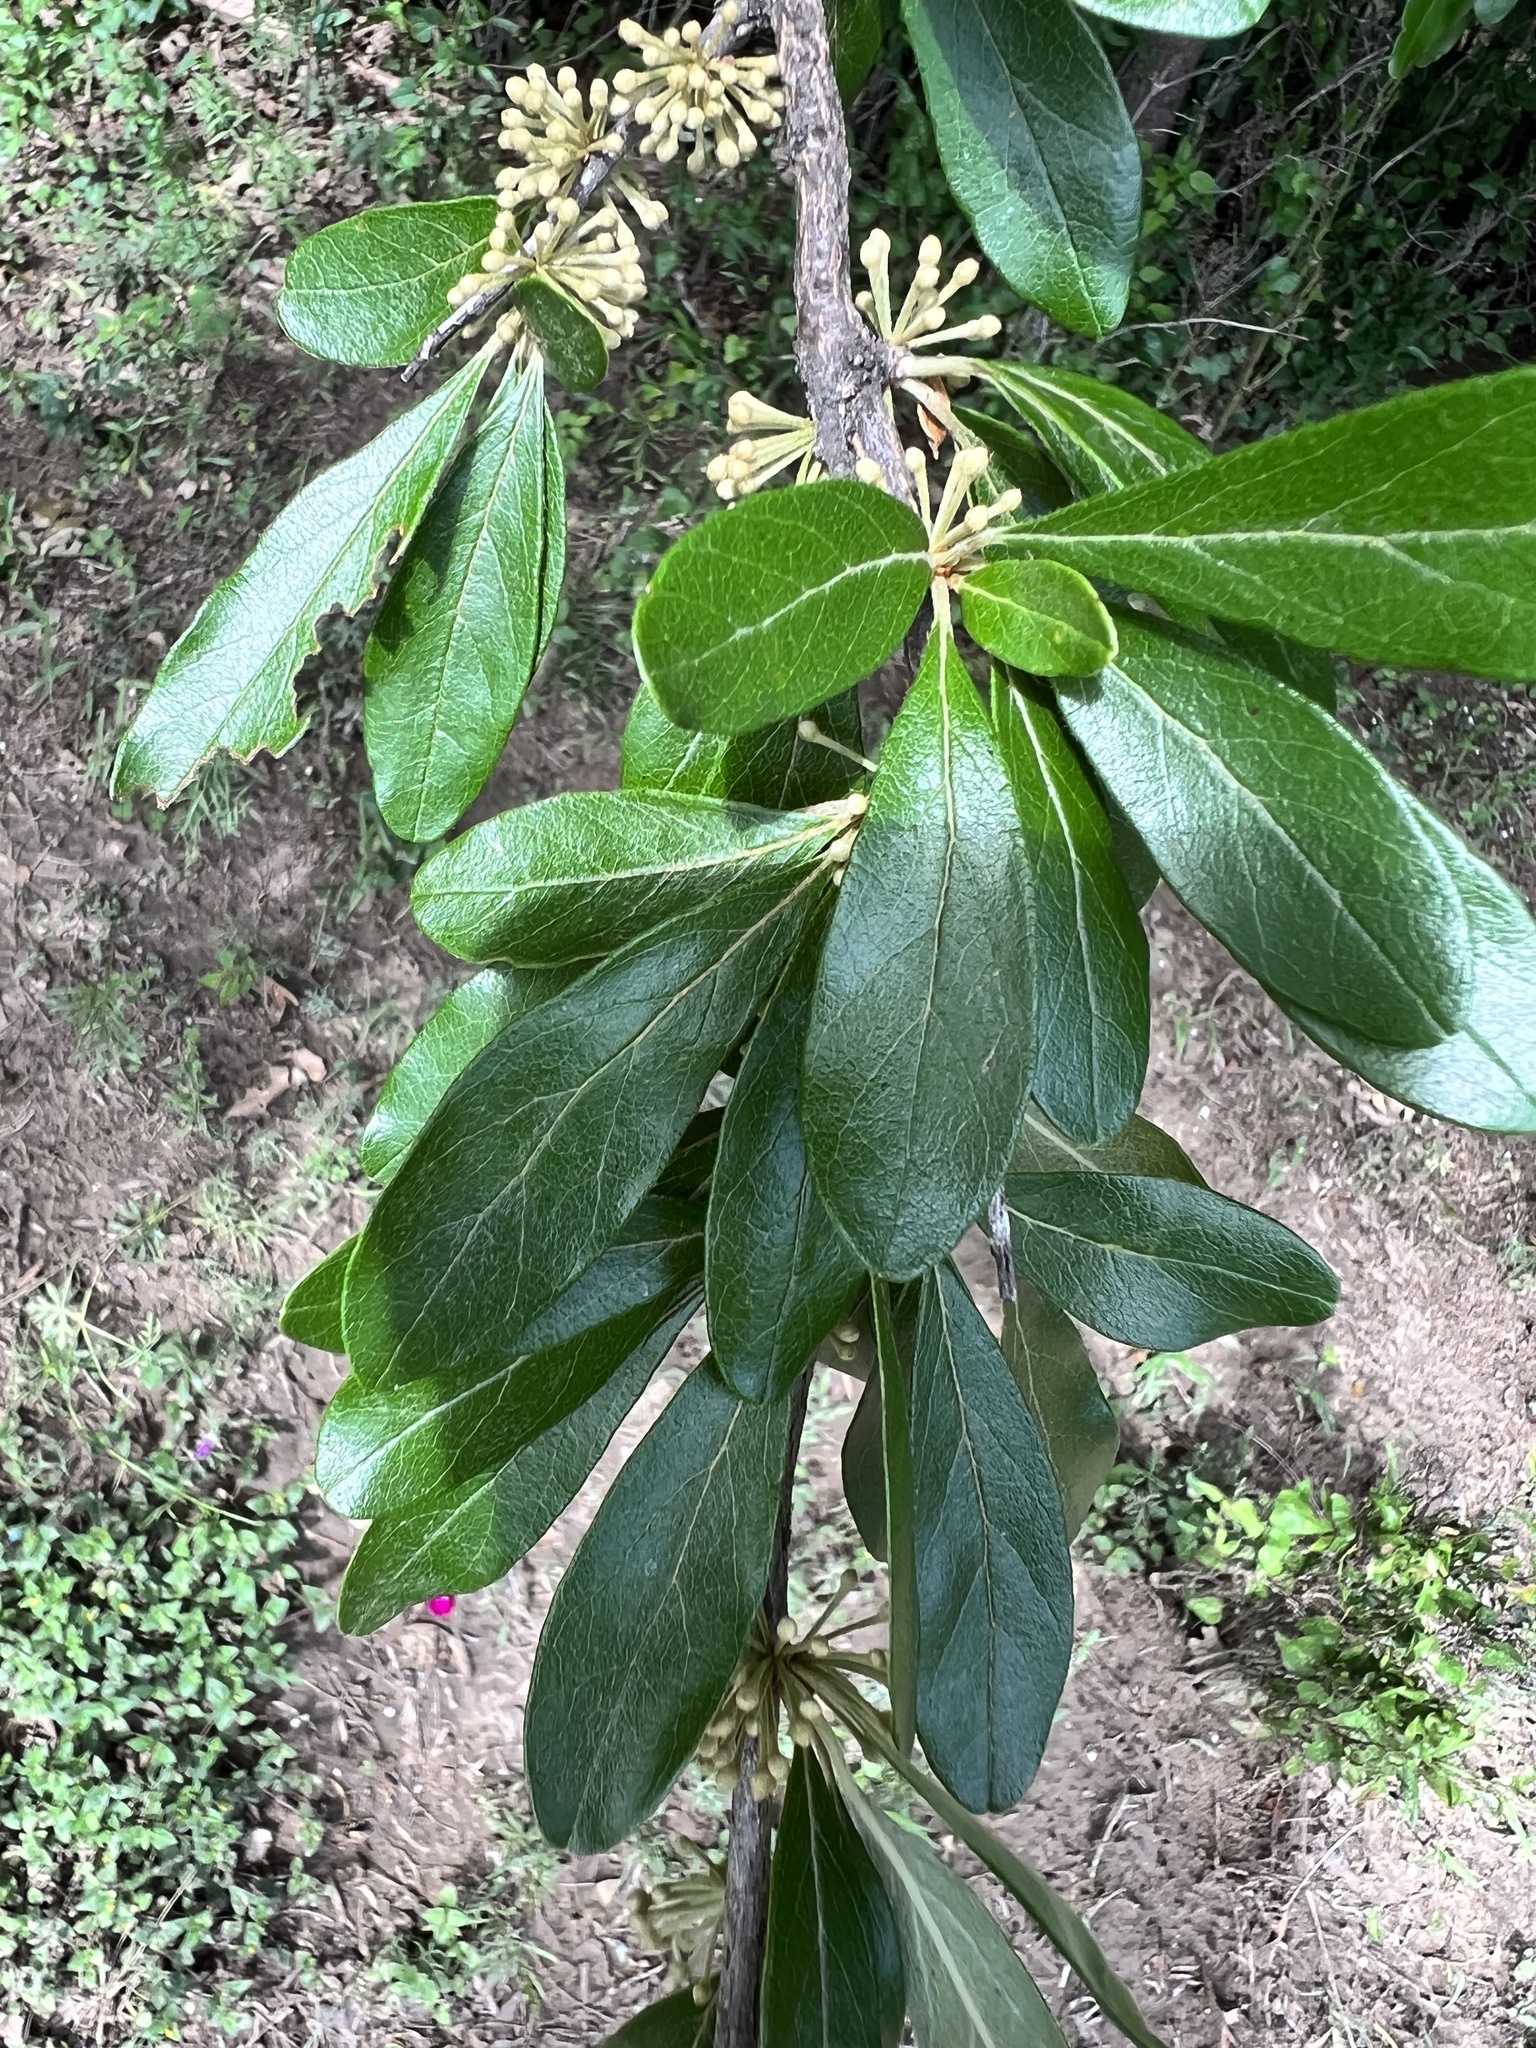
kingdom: Plantae
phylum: Tracheophyta
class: Magnoliopsida
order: Ericales
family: Sapotaceae
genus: Sideroxylon
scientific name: Sideroxylon lanuginosum
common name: Chittamwood
